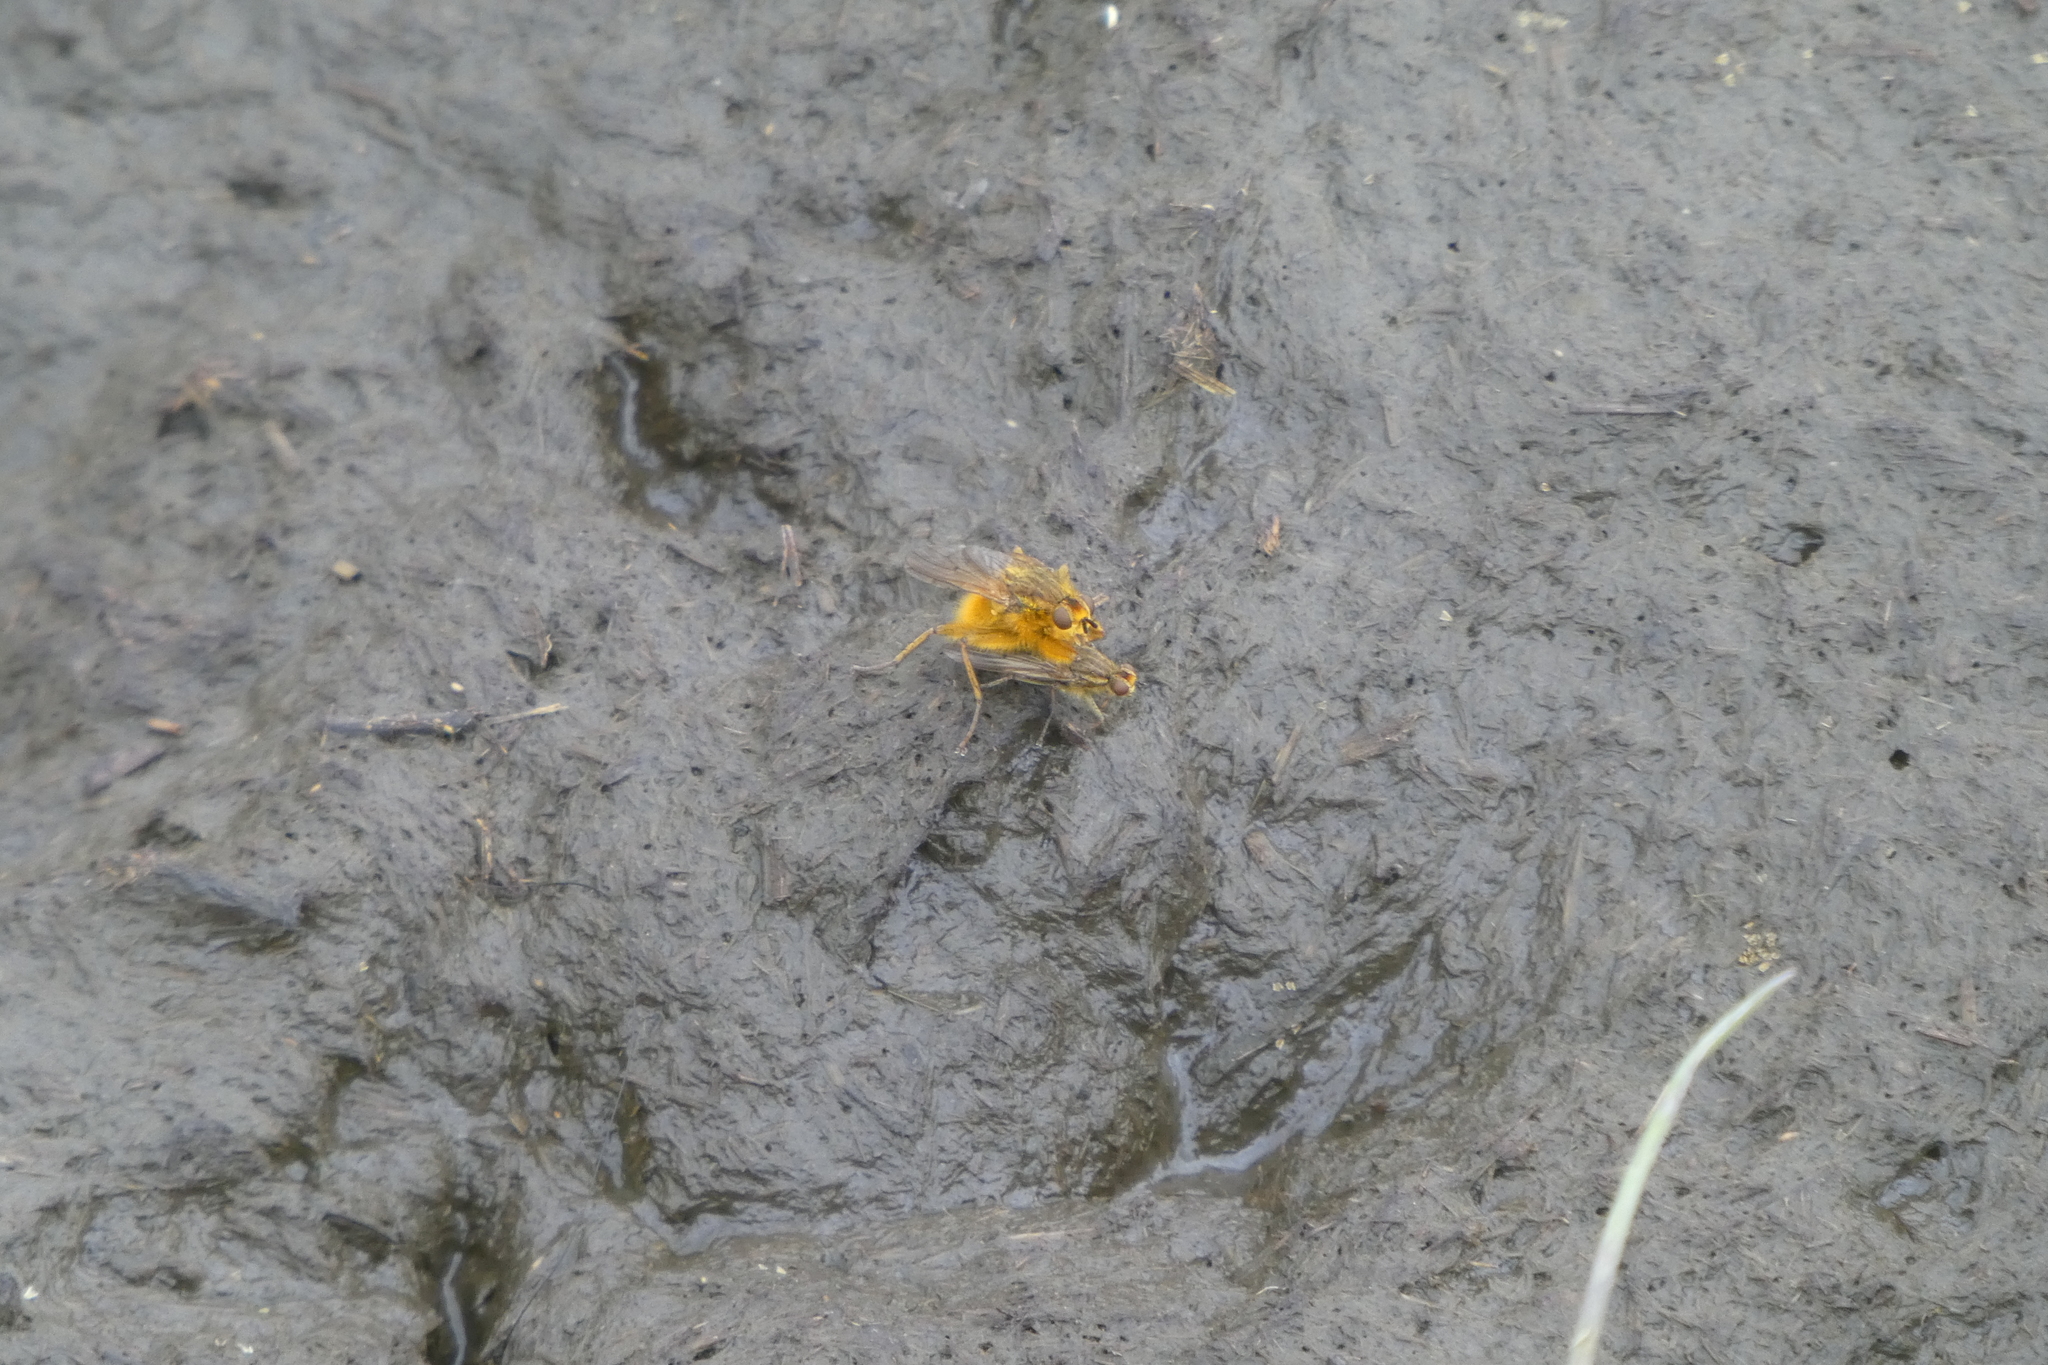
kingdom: Animalia
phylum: Arthropoda
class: Insecta
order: Diptera
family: Scathophagidae
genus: Scathophaga
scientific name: Scathophaga stercoraria
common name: Yellow dung fly
